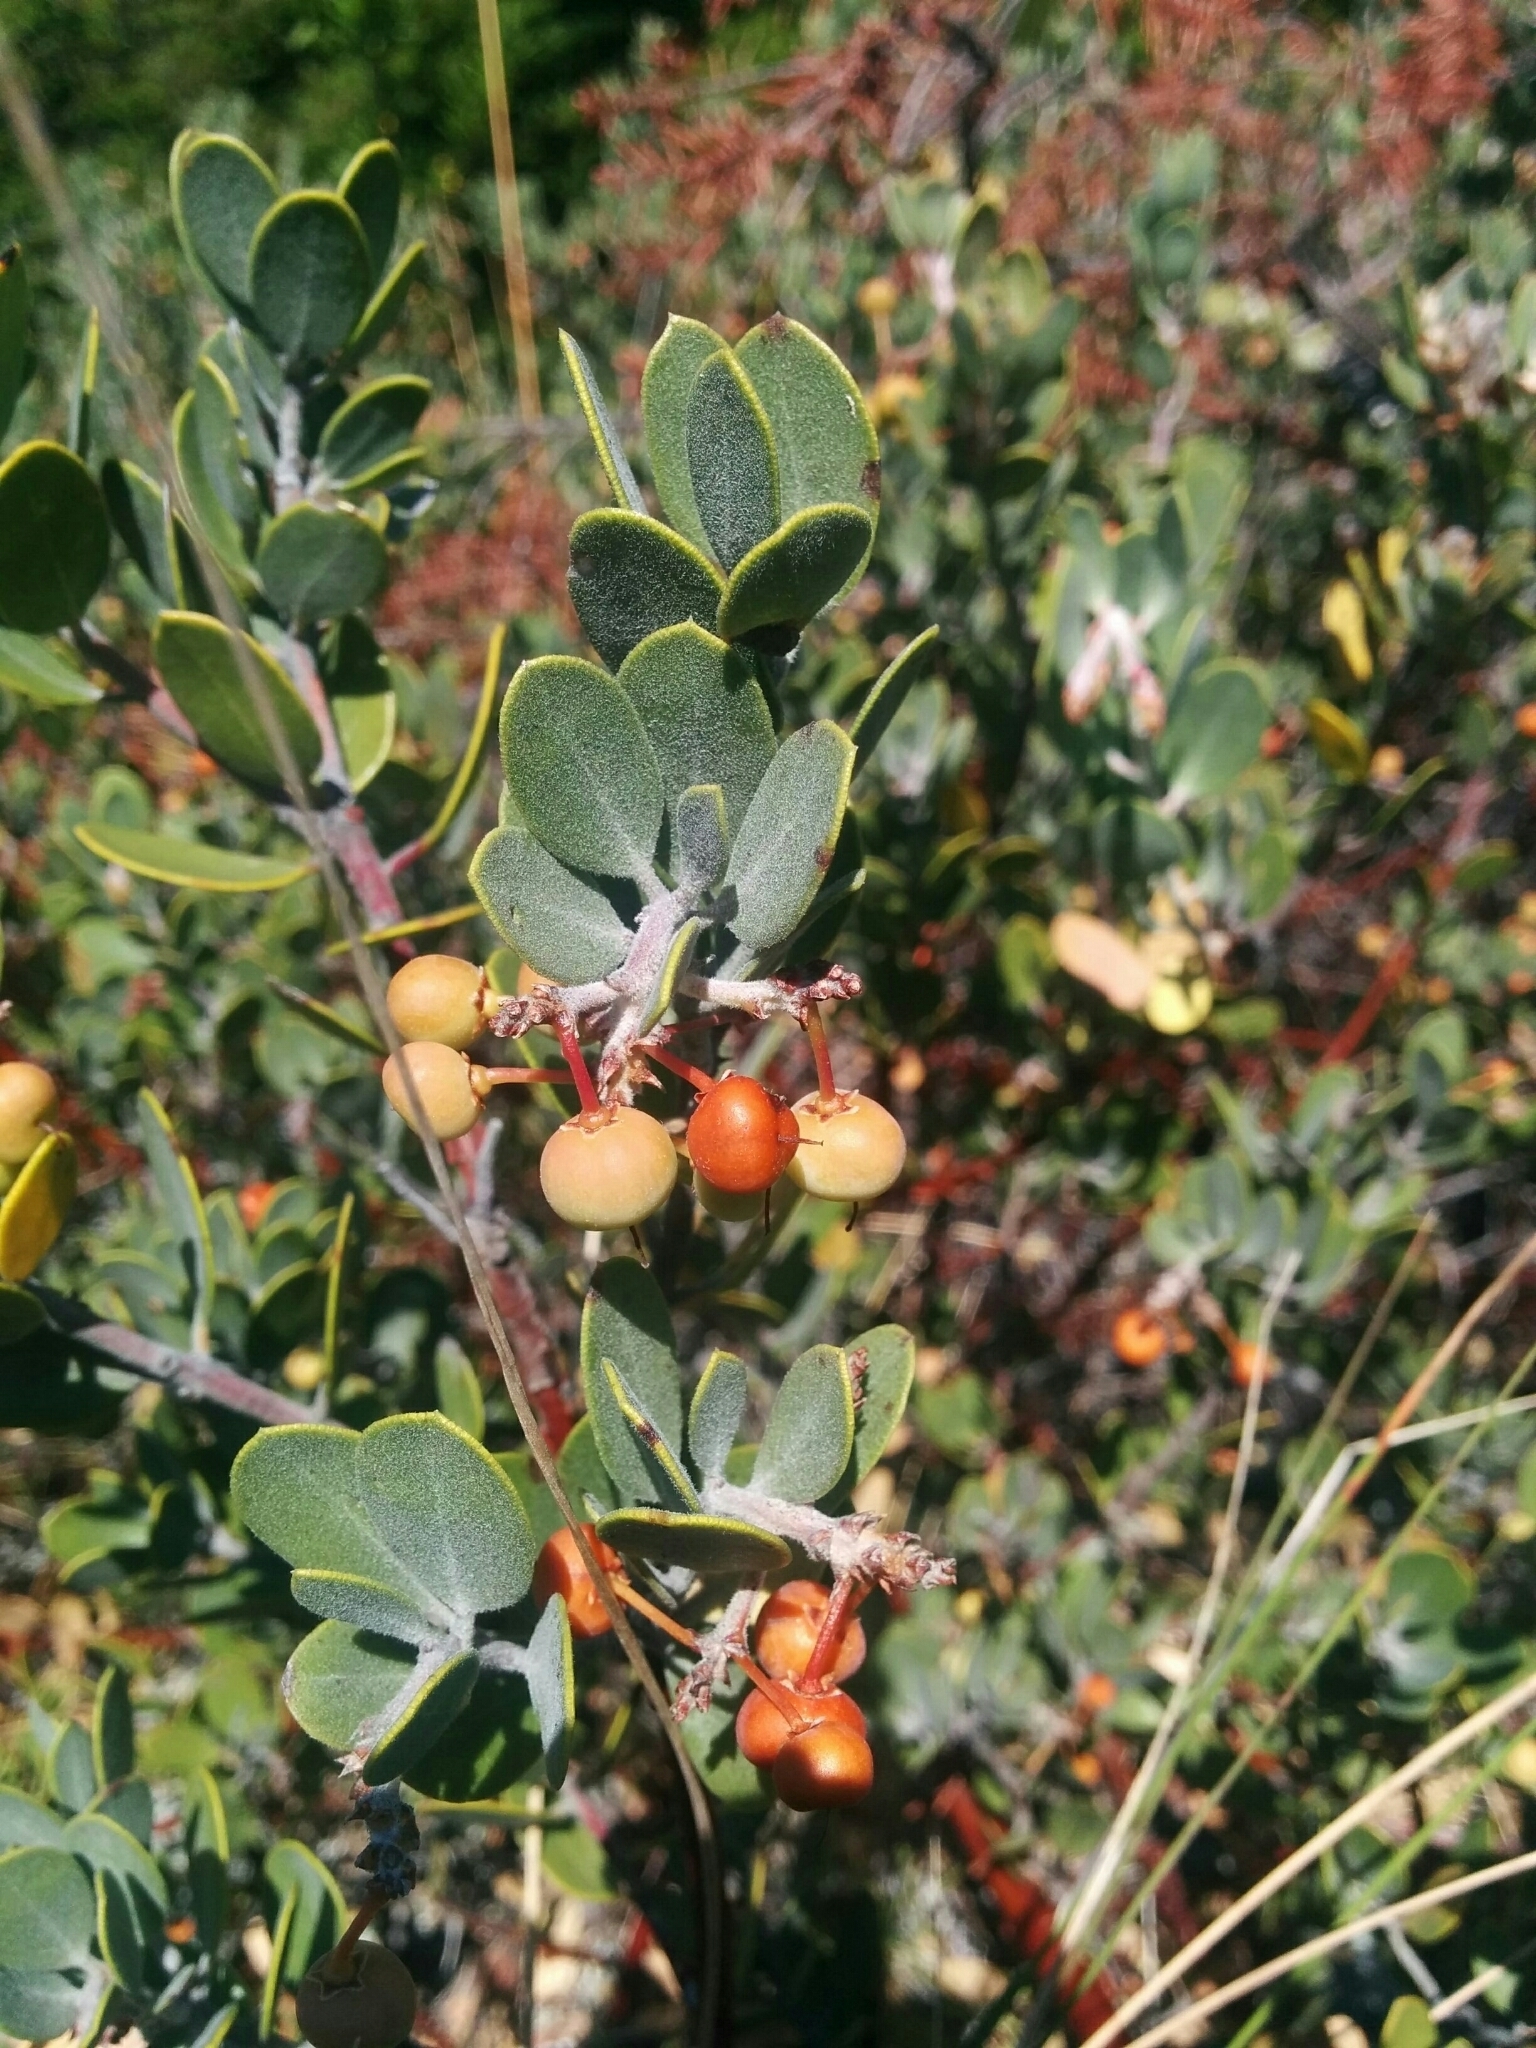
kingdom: Plantae
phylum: Tracheophyta
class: Magnoliopsida
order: Ericales
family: Ericaceae
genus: Arctostaphylos
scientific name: Arctostaphylos montana
